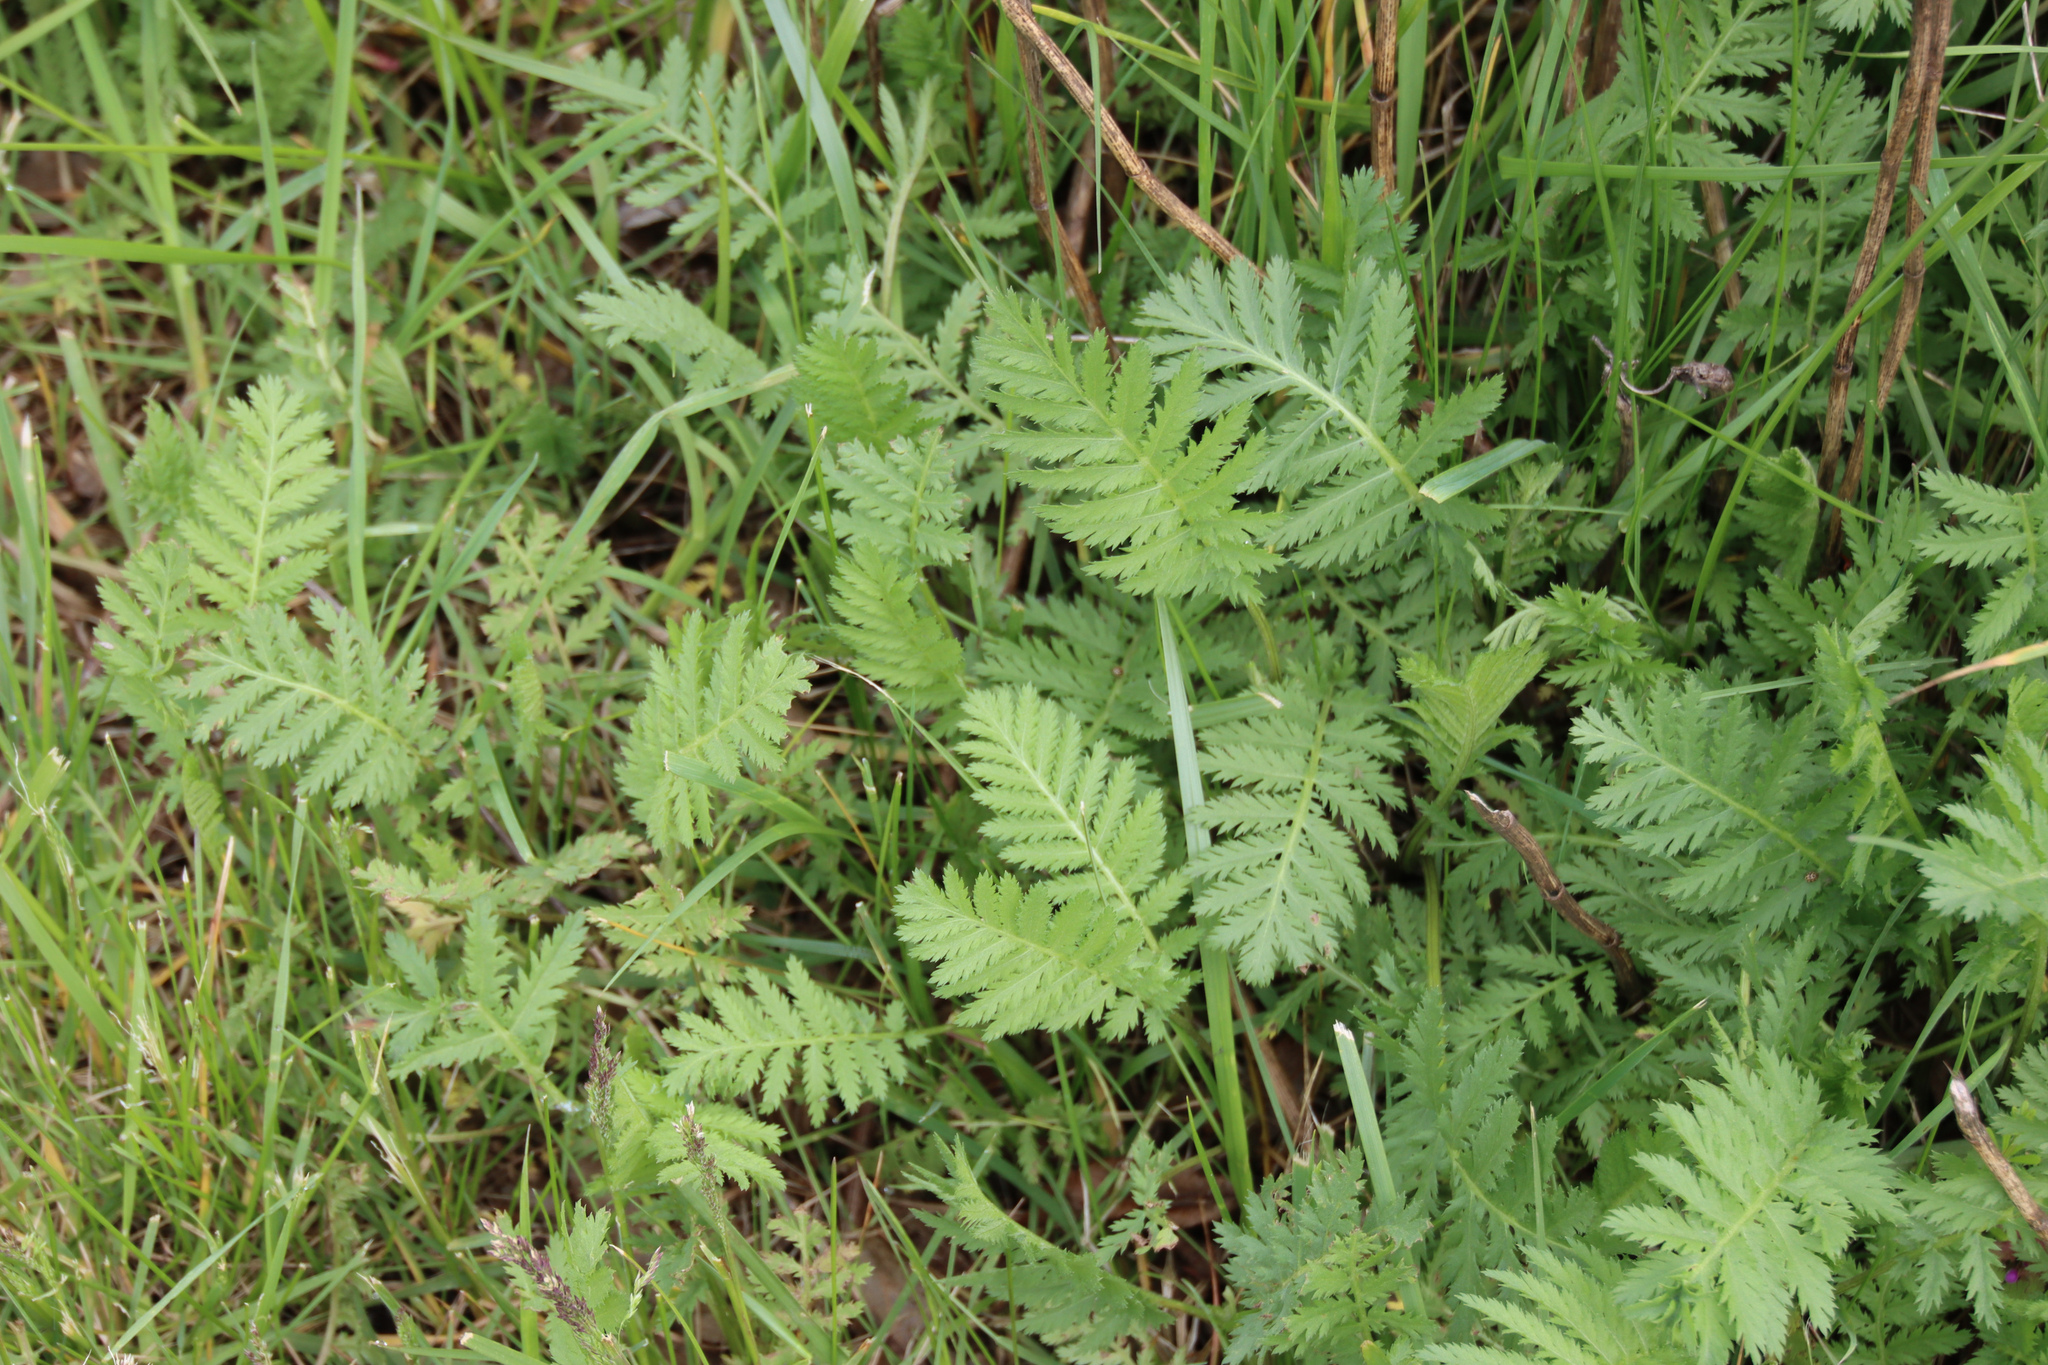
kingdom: Plantae
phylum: Tracheophyta
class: Magnoliopsida
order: Asterales
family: Asteraceae
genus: Tanacetum
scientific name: Tanacetum vulgare
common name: Common tansy
